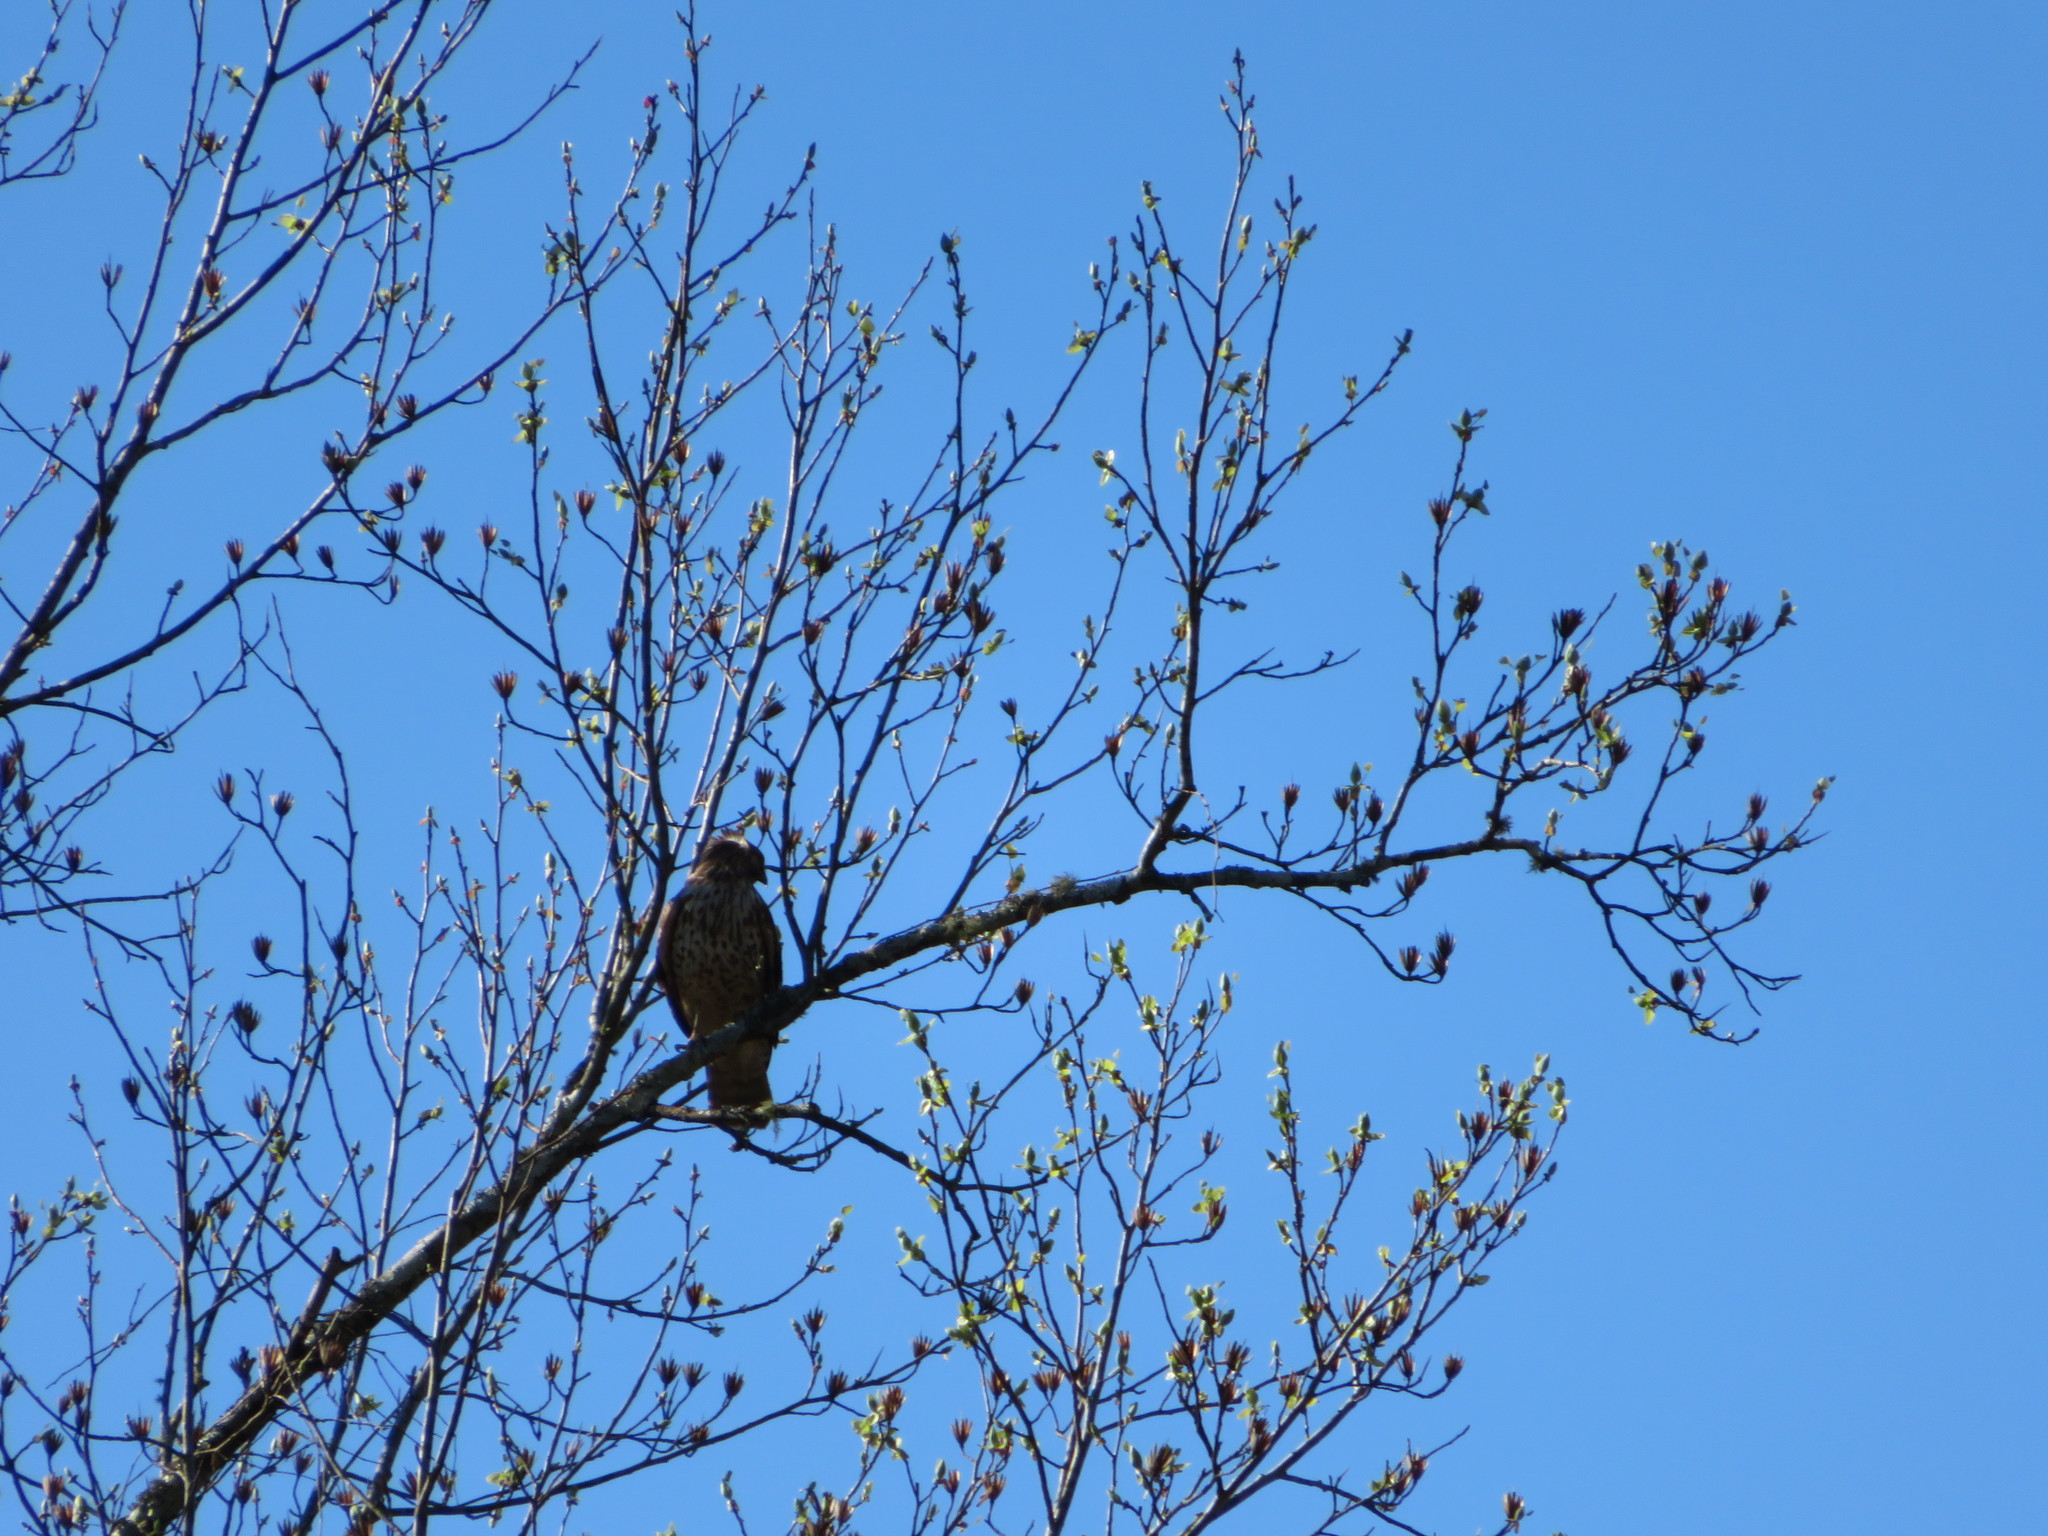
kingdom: Animalia
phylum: Chordata
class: Aves
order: Accipitriformes
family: Accipitridae
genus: Buteo
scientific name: Buteo lineatus
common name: Red-shouldered hawk
